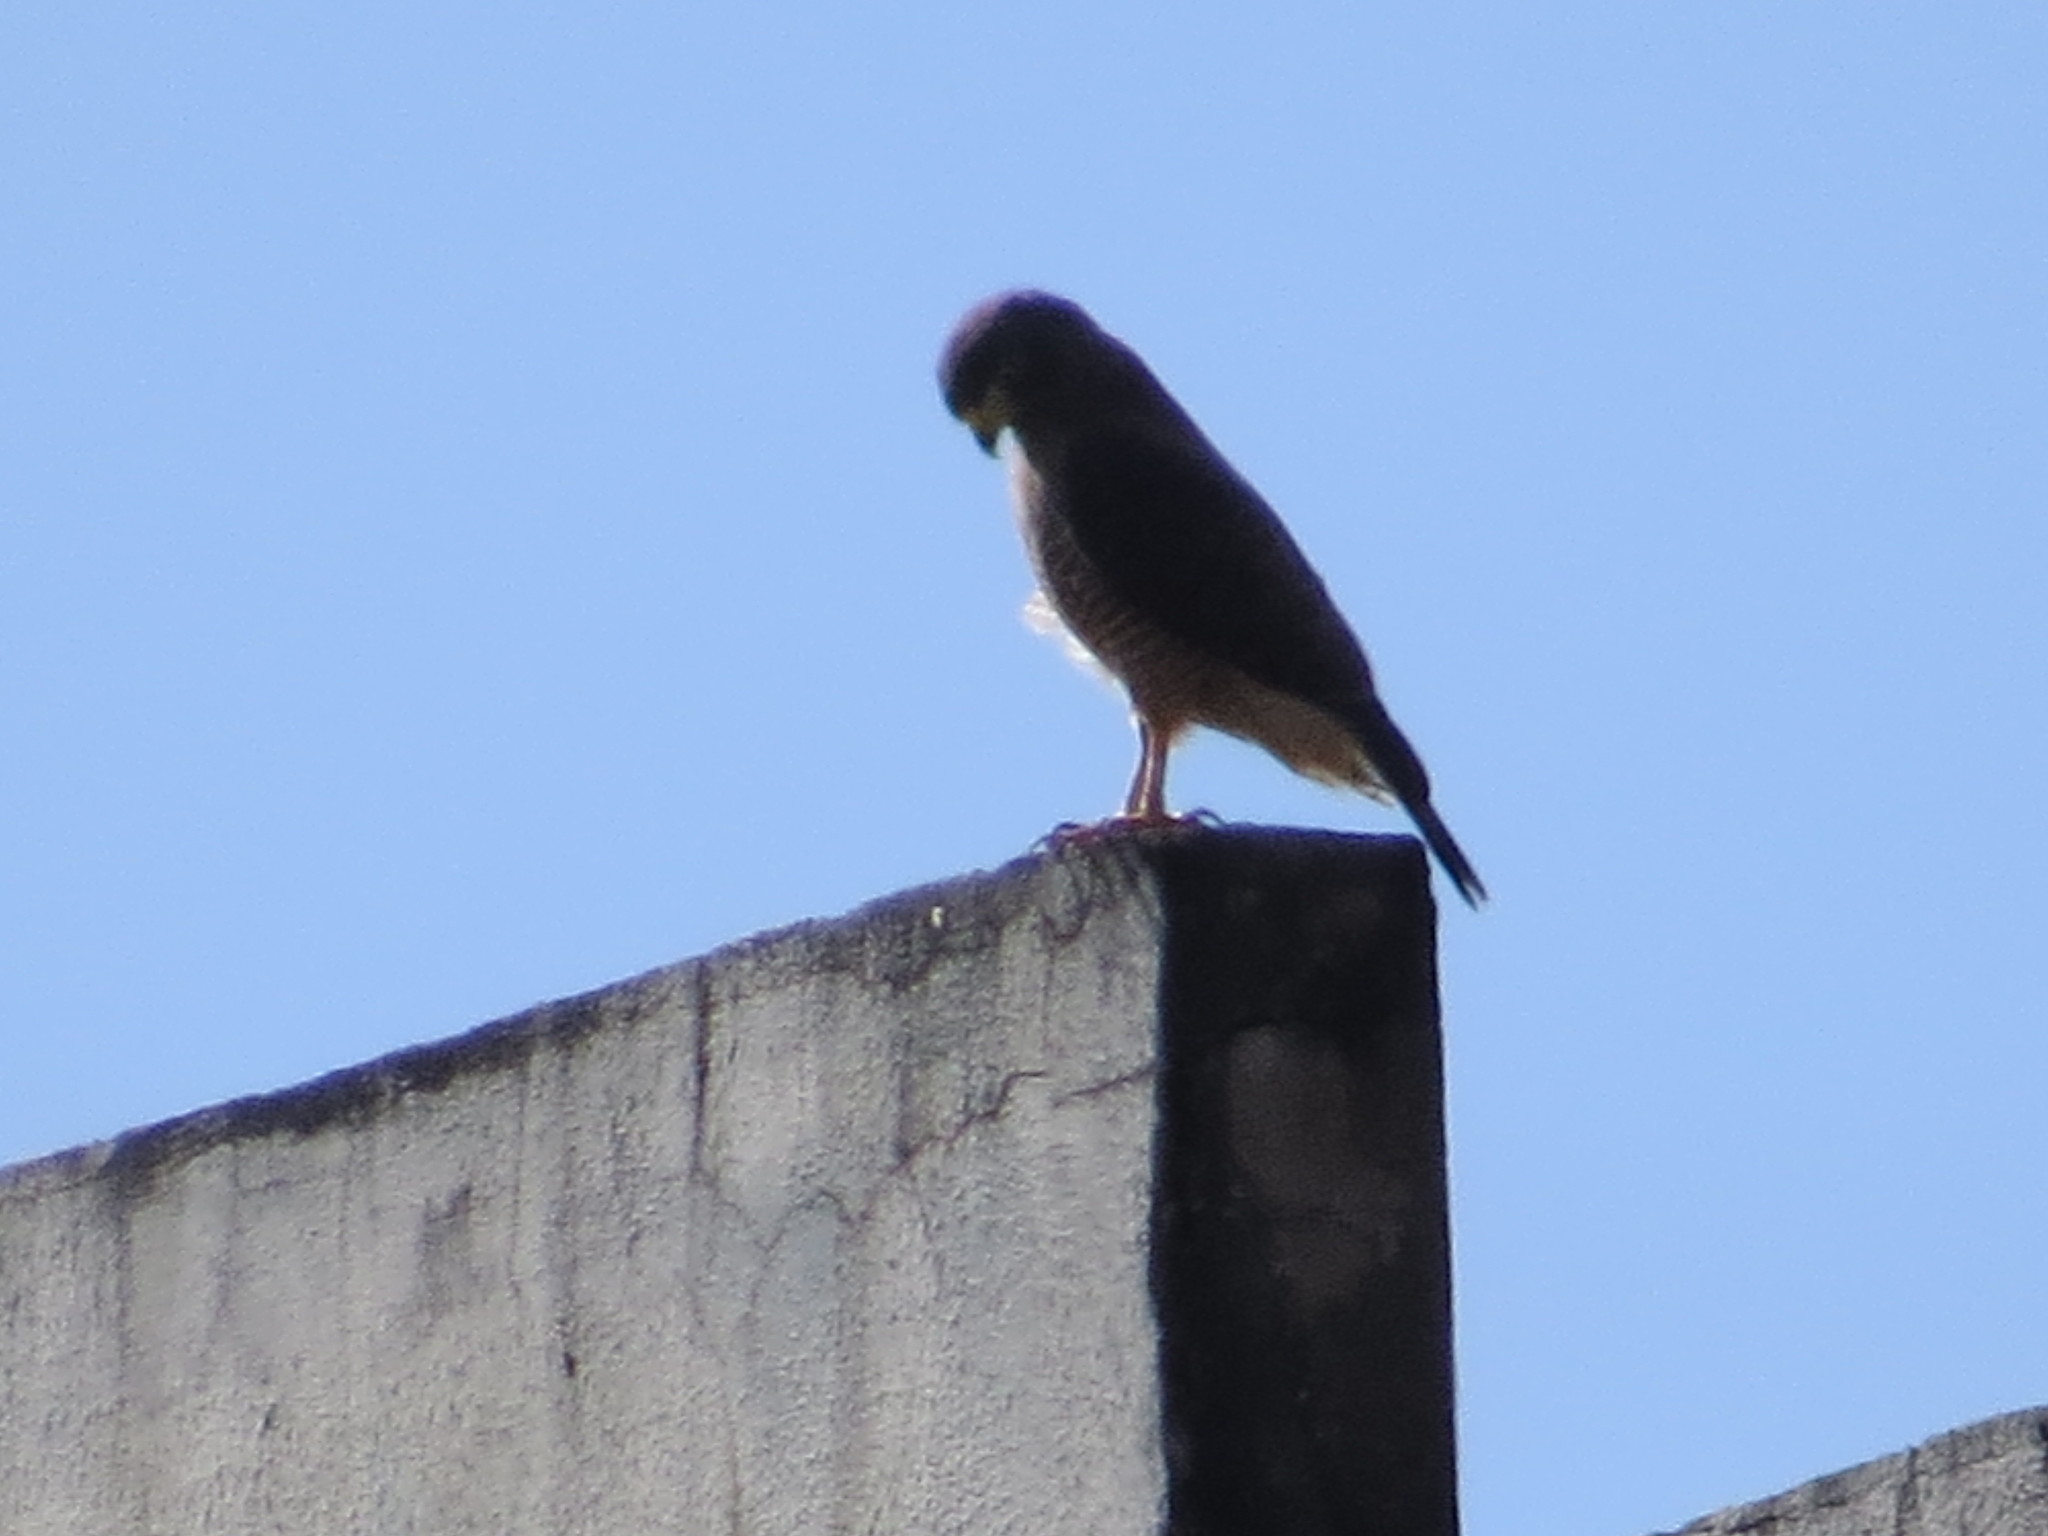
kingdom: Animalia
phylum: Chordata
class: Aves
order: Accipitriformes
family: Accipitridae
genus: Rupornis
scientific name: Rupornis magnirostris
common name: Roadside hawk
